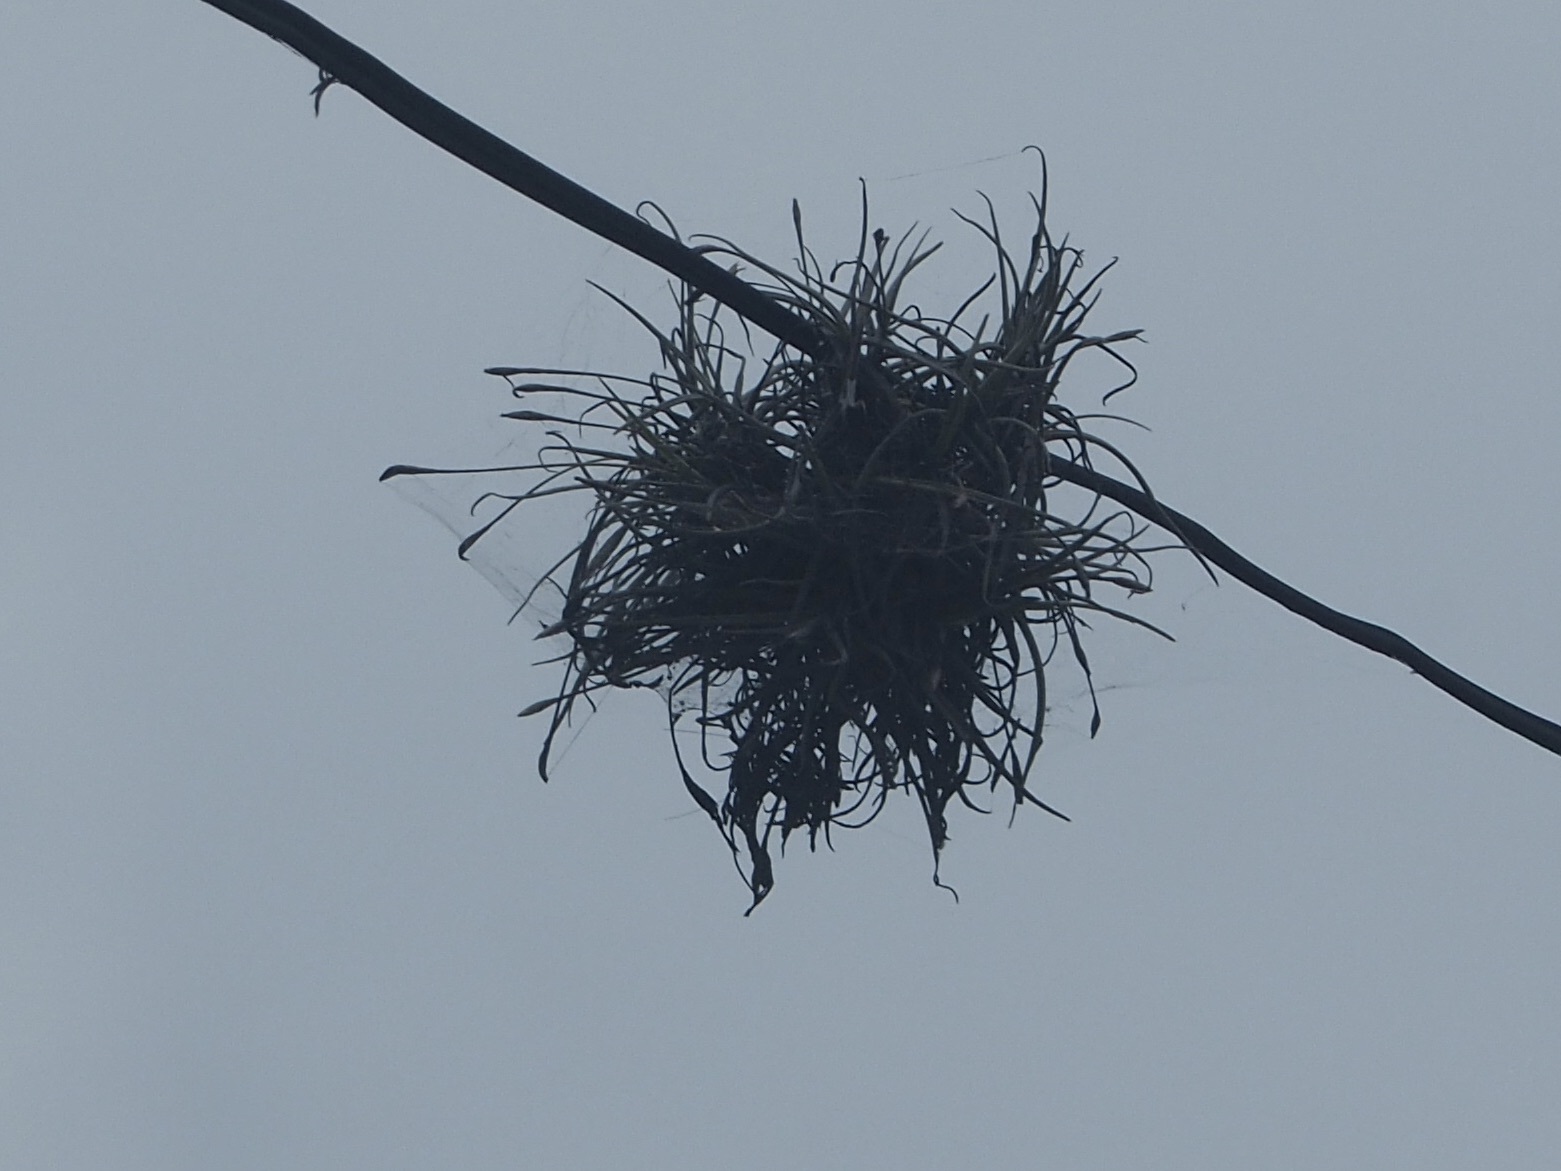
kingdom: Plantae
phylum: Tracheophyta
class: Liliopsida
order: Poales
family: Bromeliaceae
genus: Tillandsia
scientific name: Tillandsia recurvata
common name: Small ballmoss
